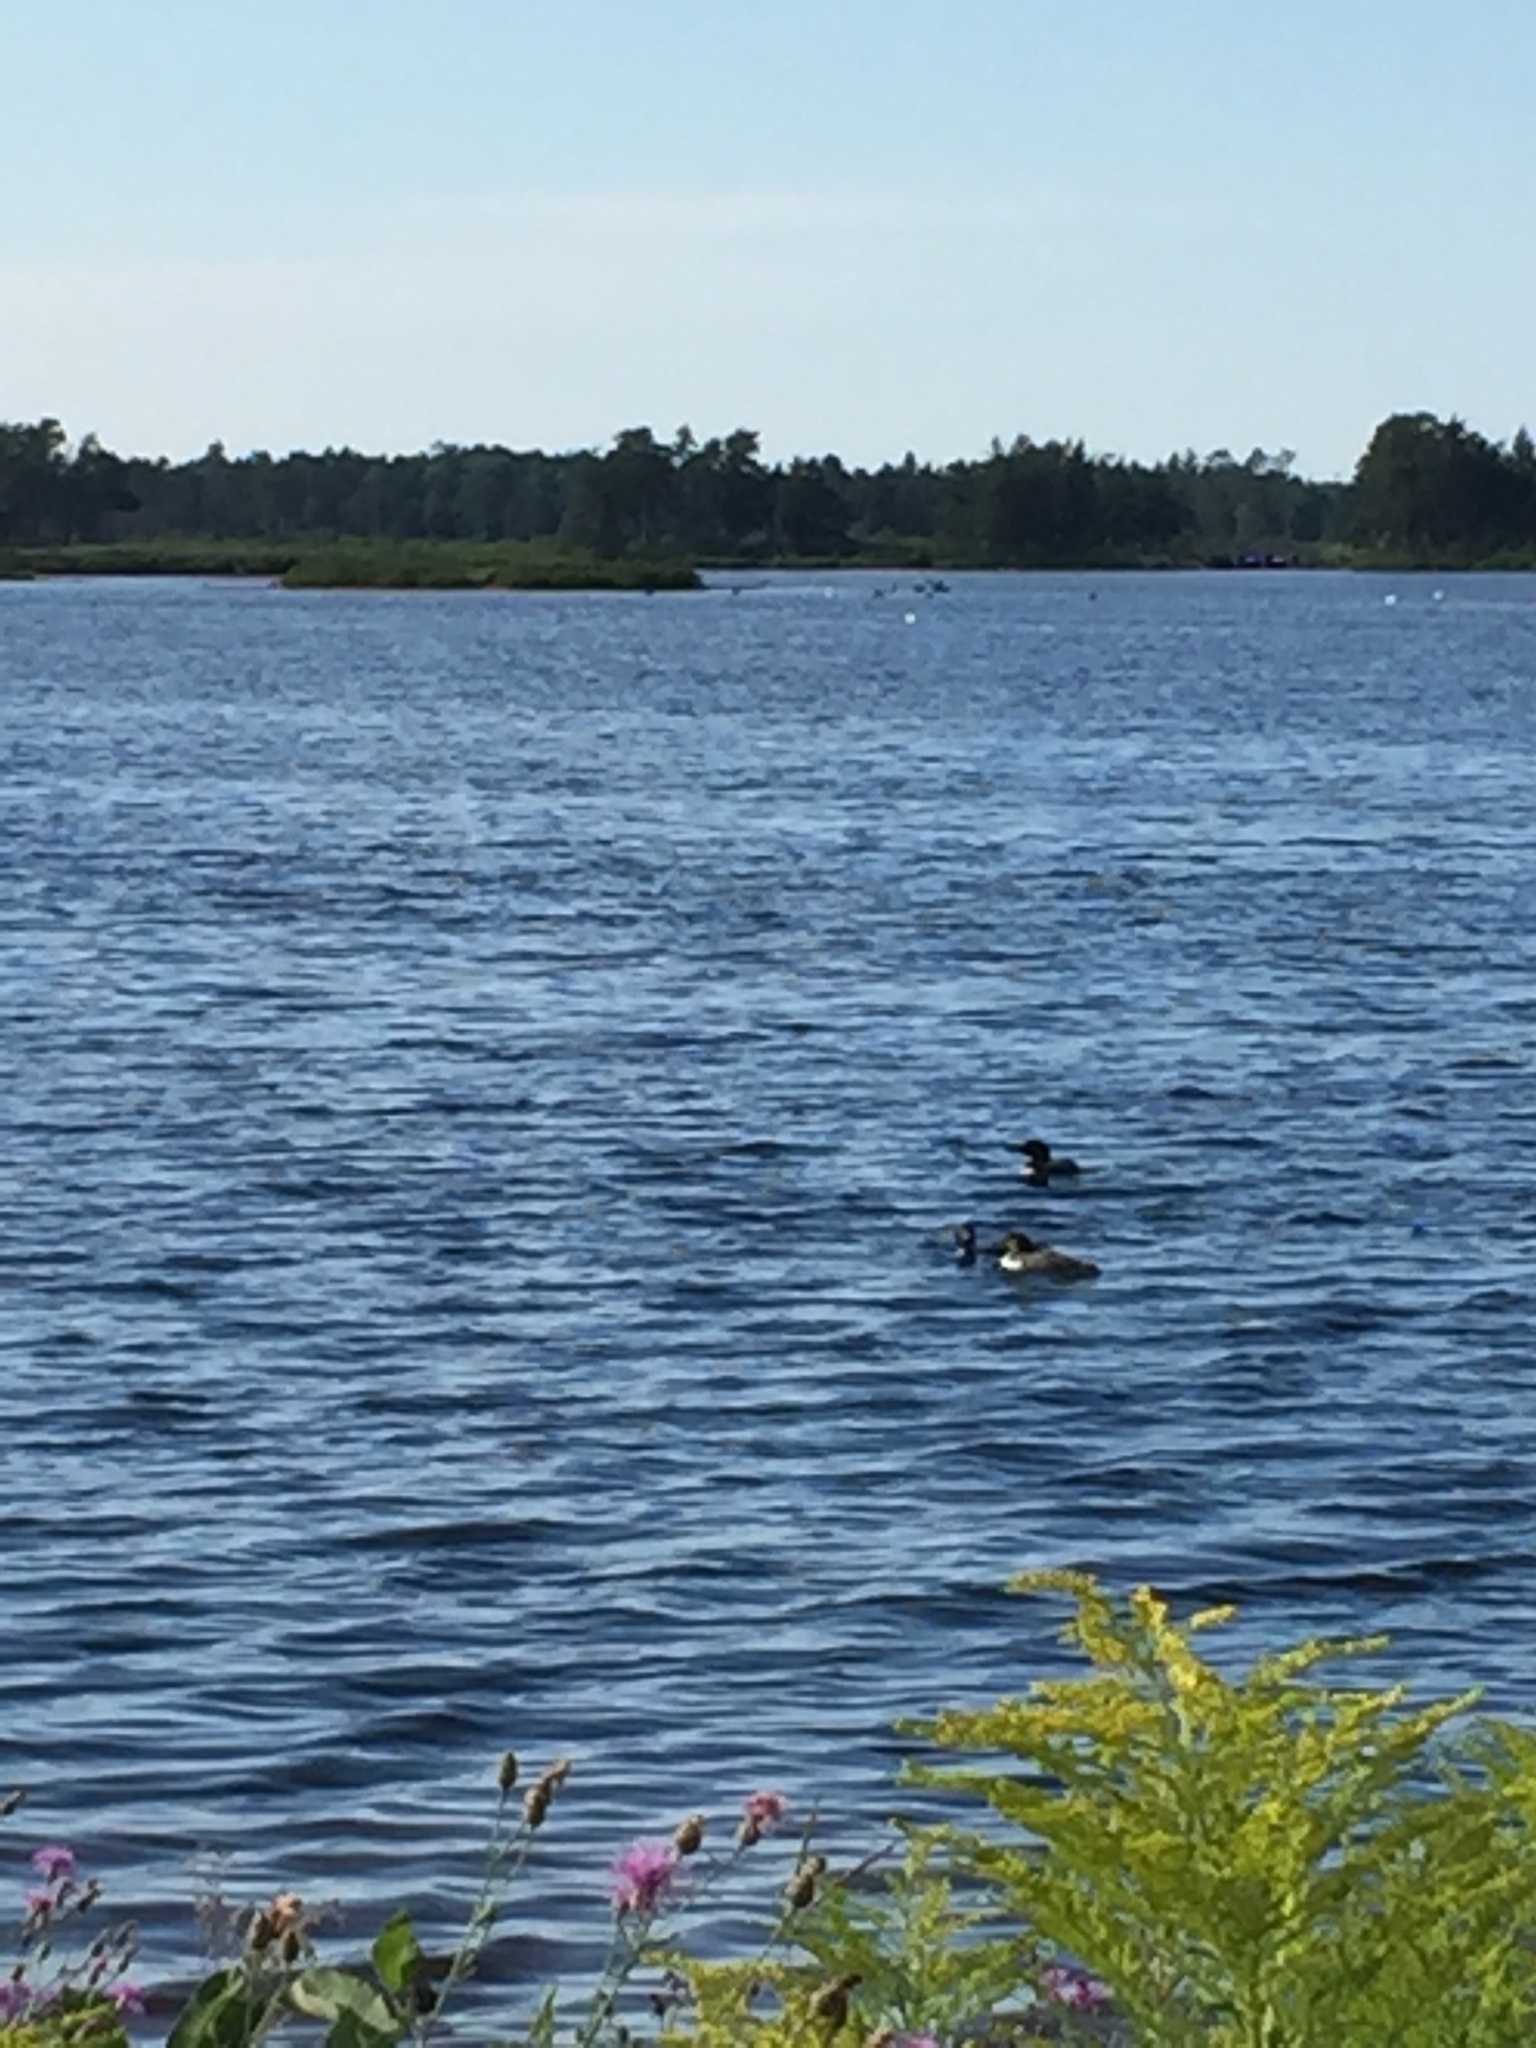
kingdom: Animalia
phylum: Chordata
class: Aves
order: Gaviiformes
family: Gaviidae
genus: Gavia
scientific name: Gavia immer
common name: Common loon
